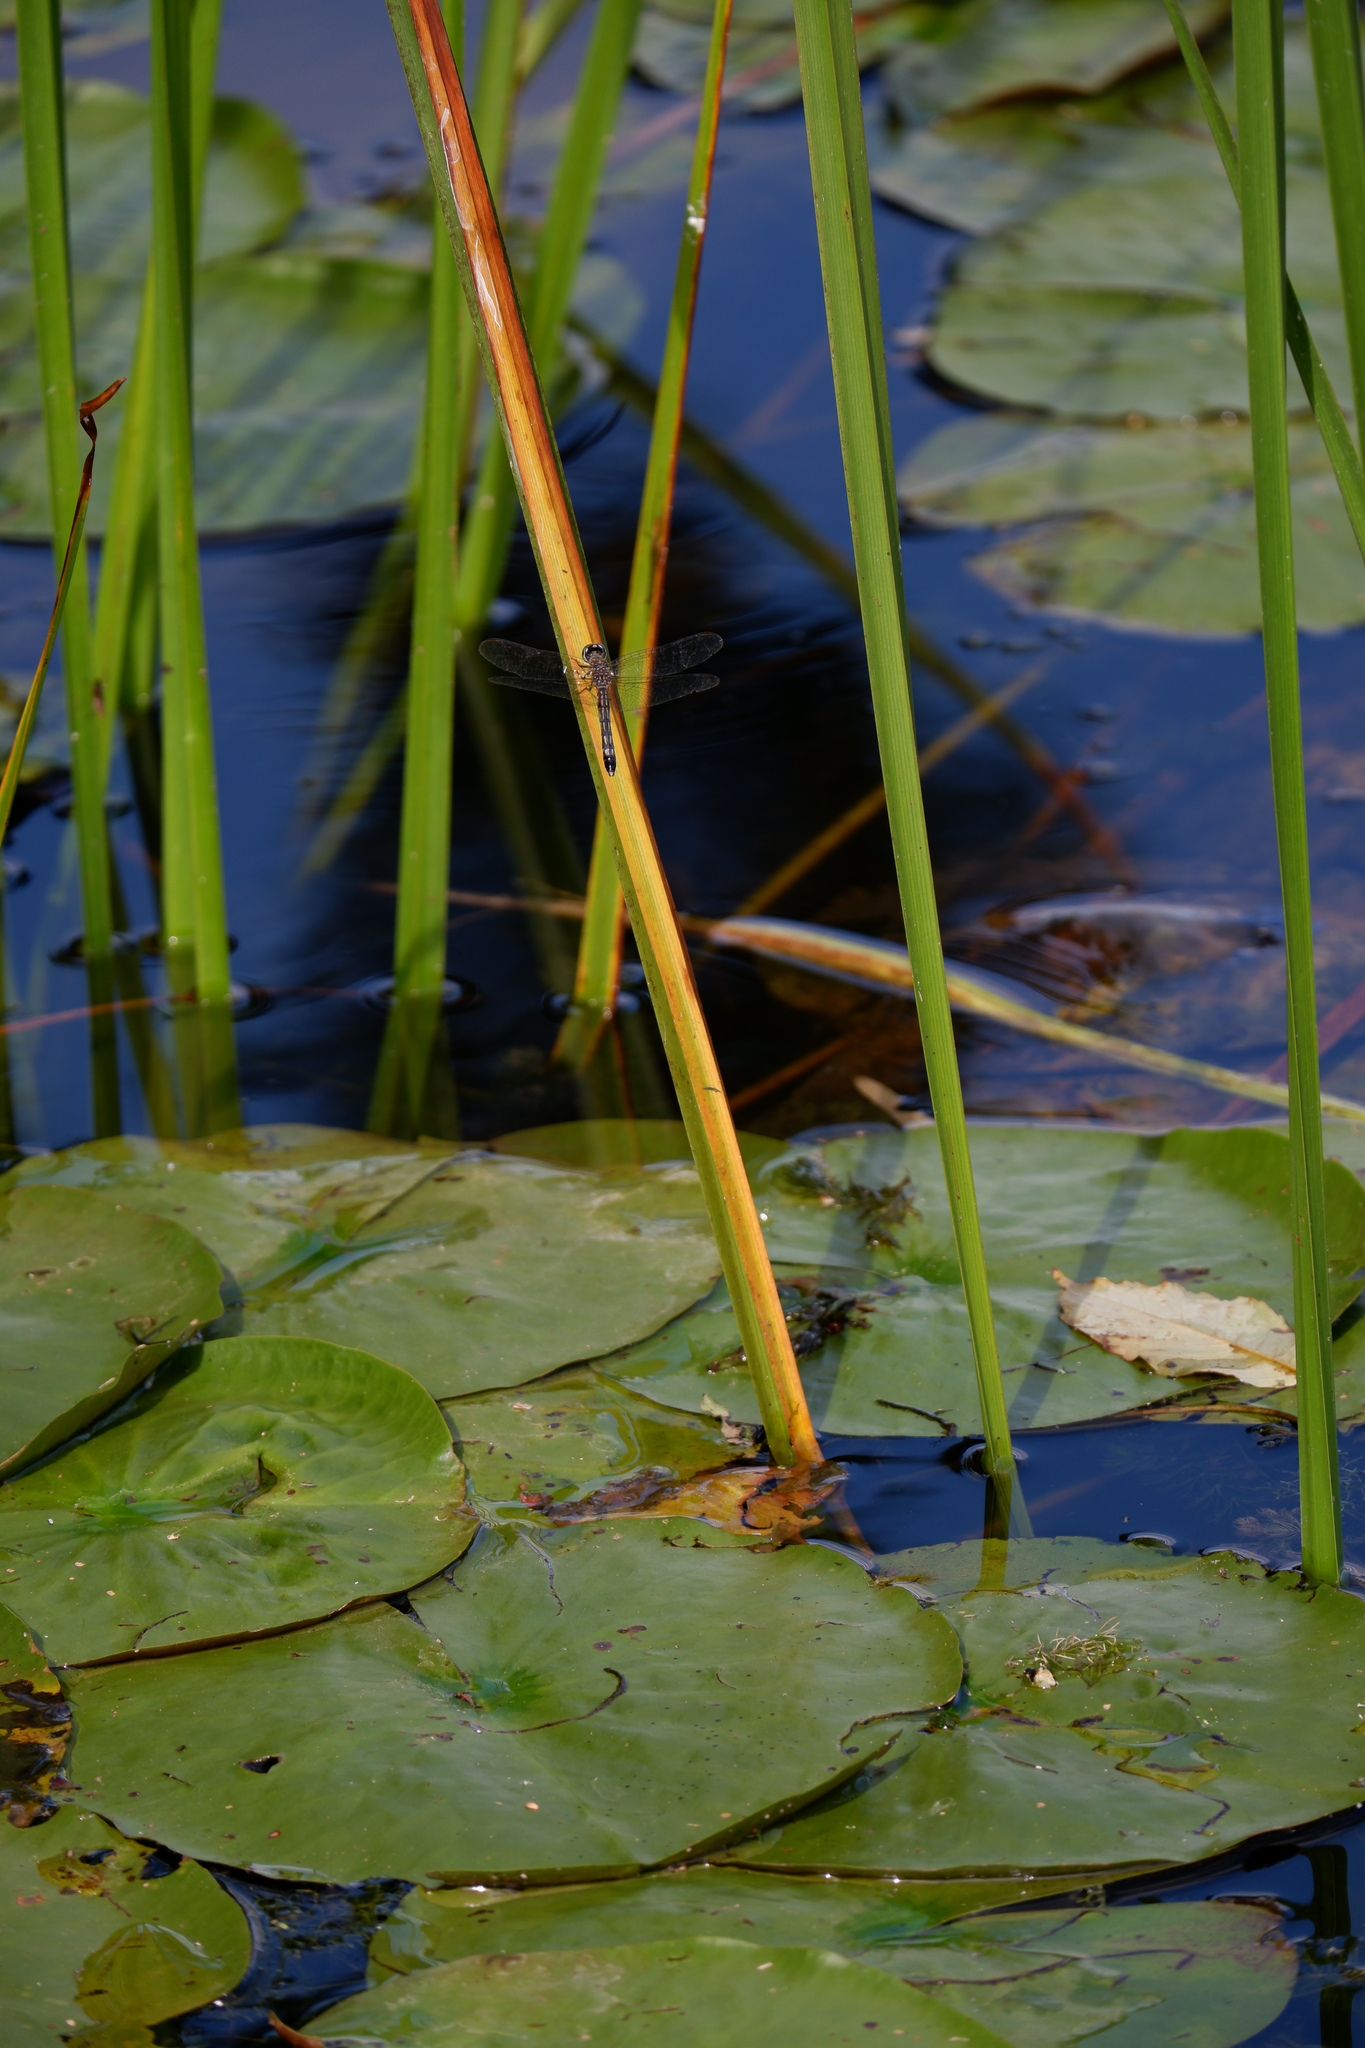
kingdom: Animalia
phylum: Arthropoda
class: Insecta
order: Odonata
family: Libellulidae
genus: Pachydiplax
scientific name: Pachydiplax longipennis
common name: Blue dasher
